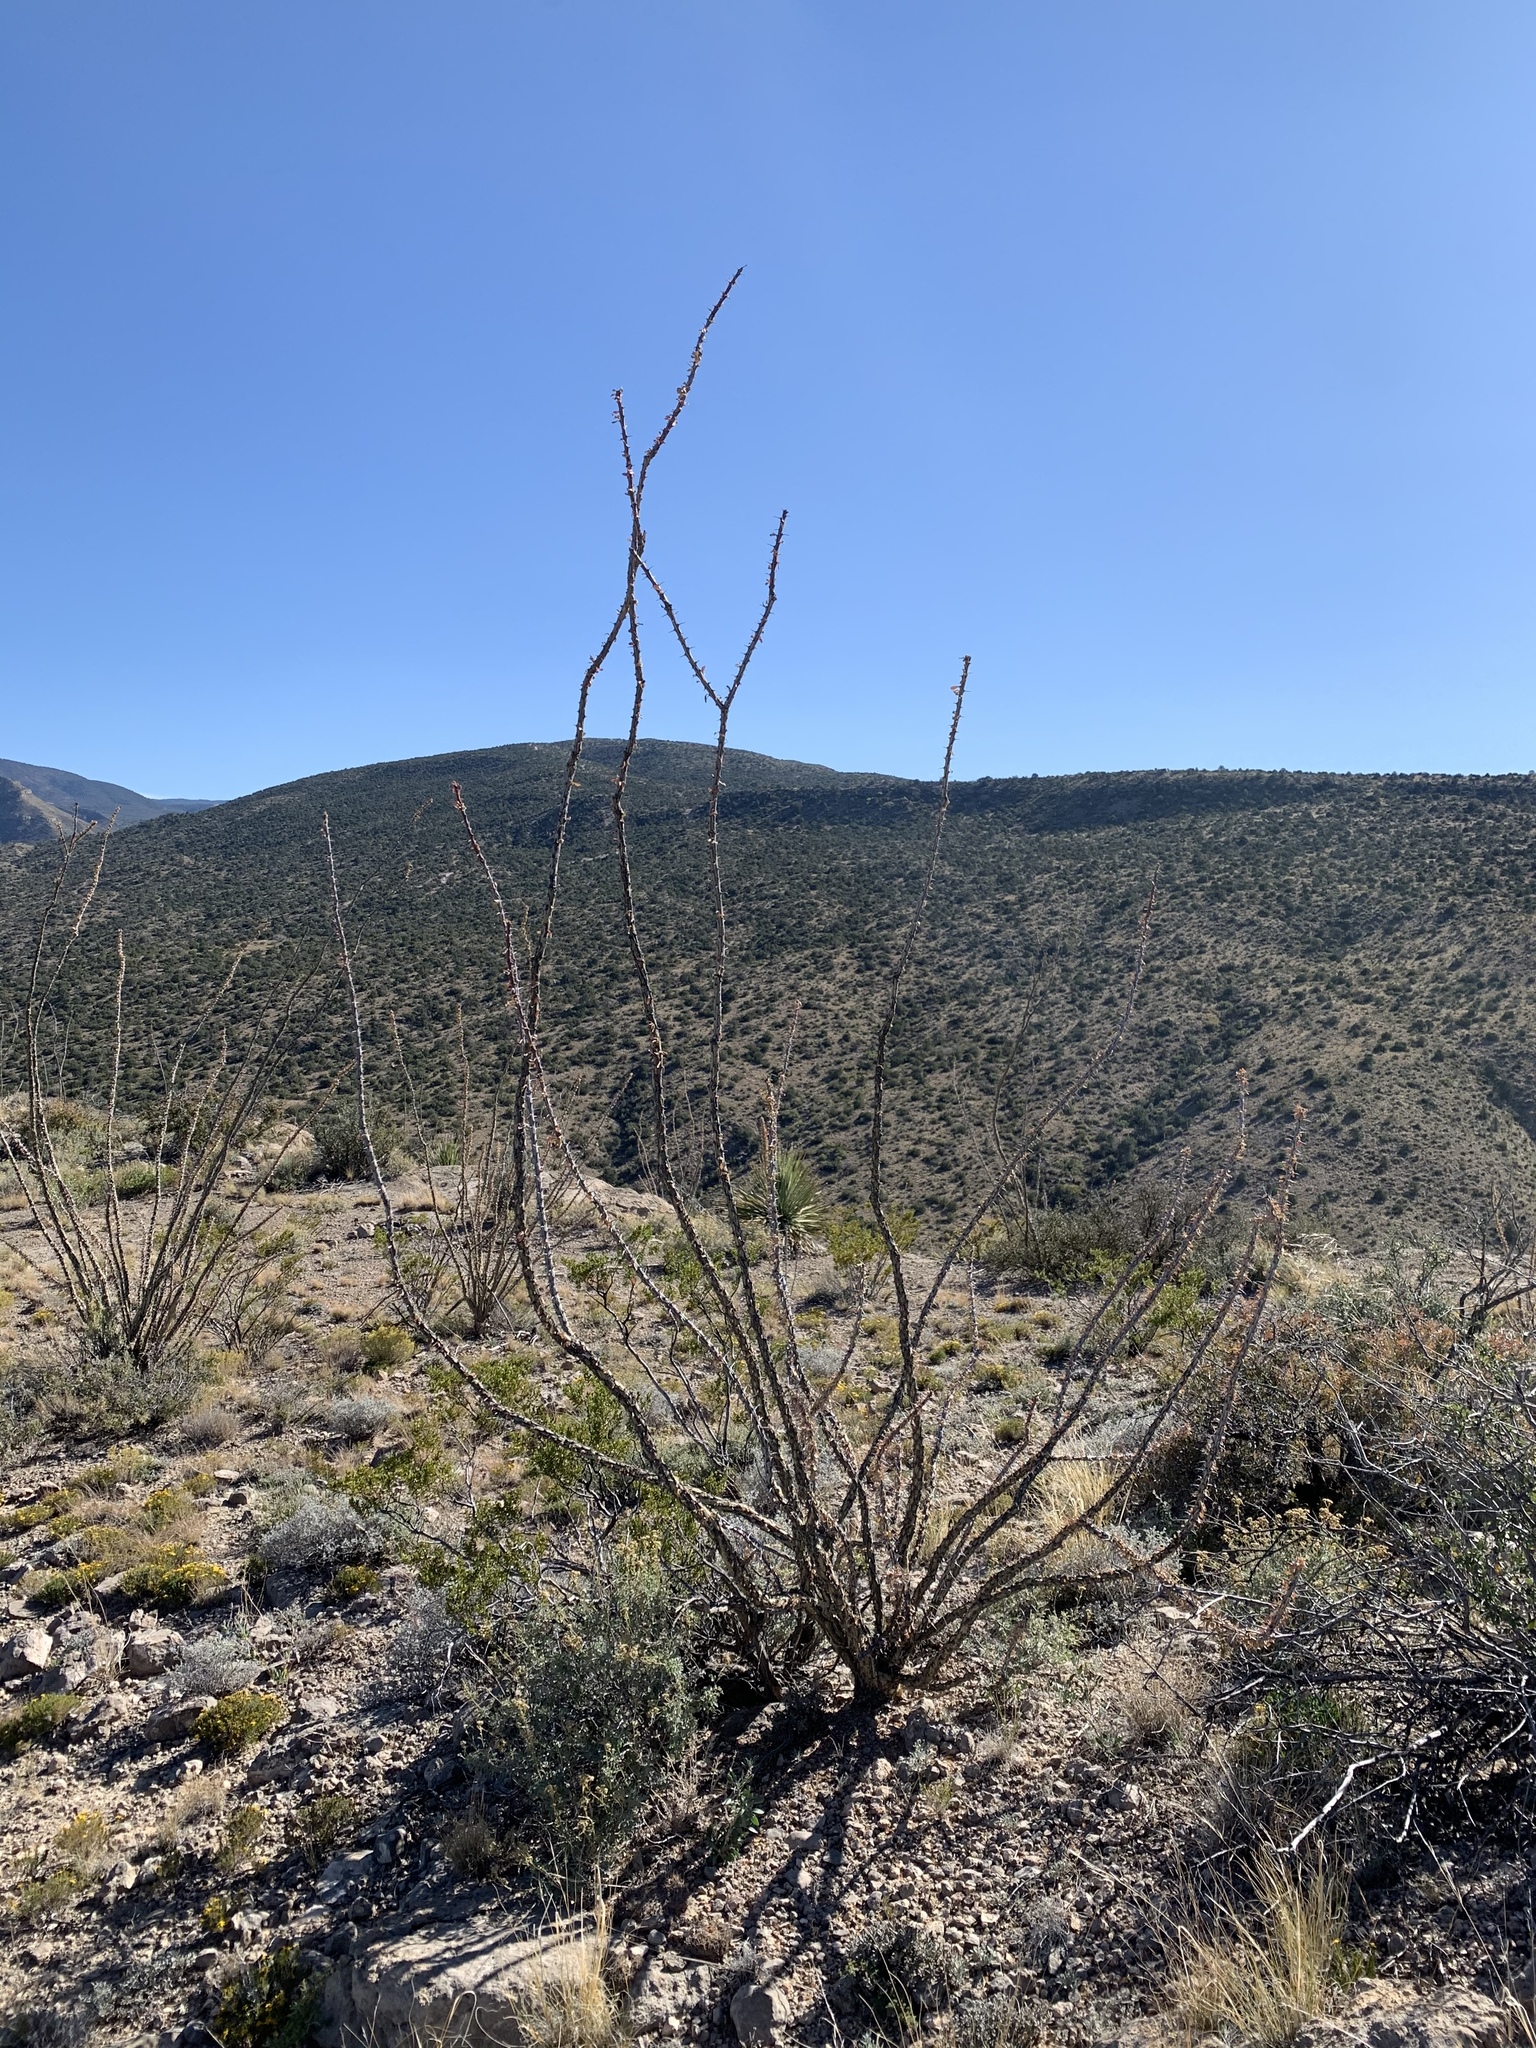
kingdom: Plantae
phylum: Tracheophyta
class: Magnoliopsida
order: Ericales
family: Fouquieriaceae
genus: Fouquieria
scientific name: Fouquieria splendens
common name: Vine-cactus
